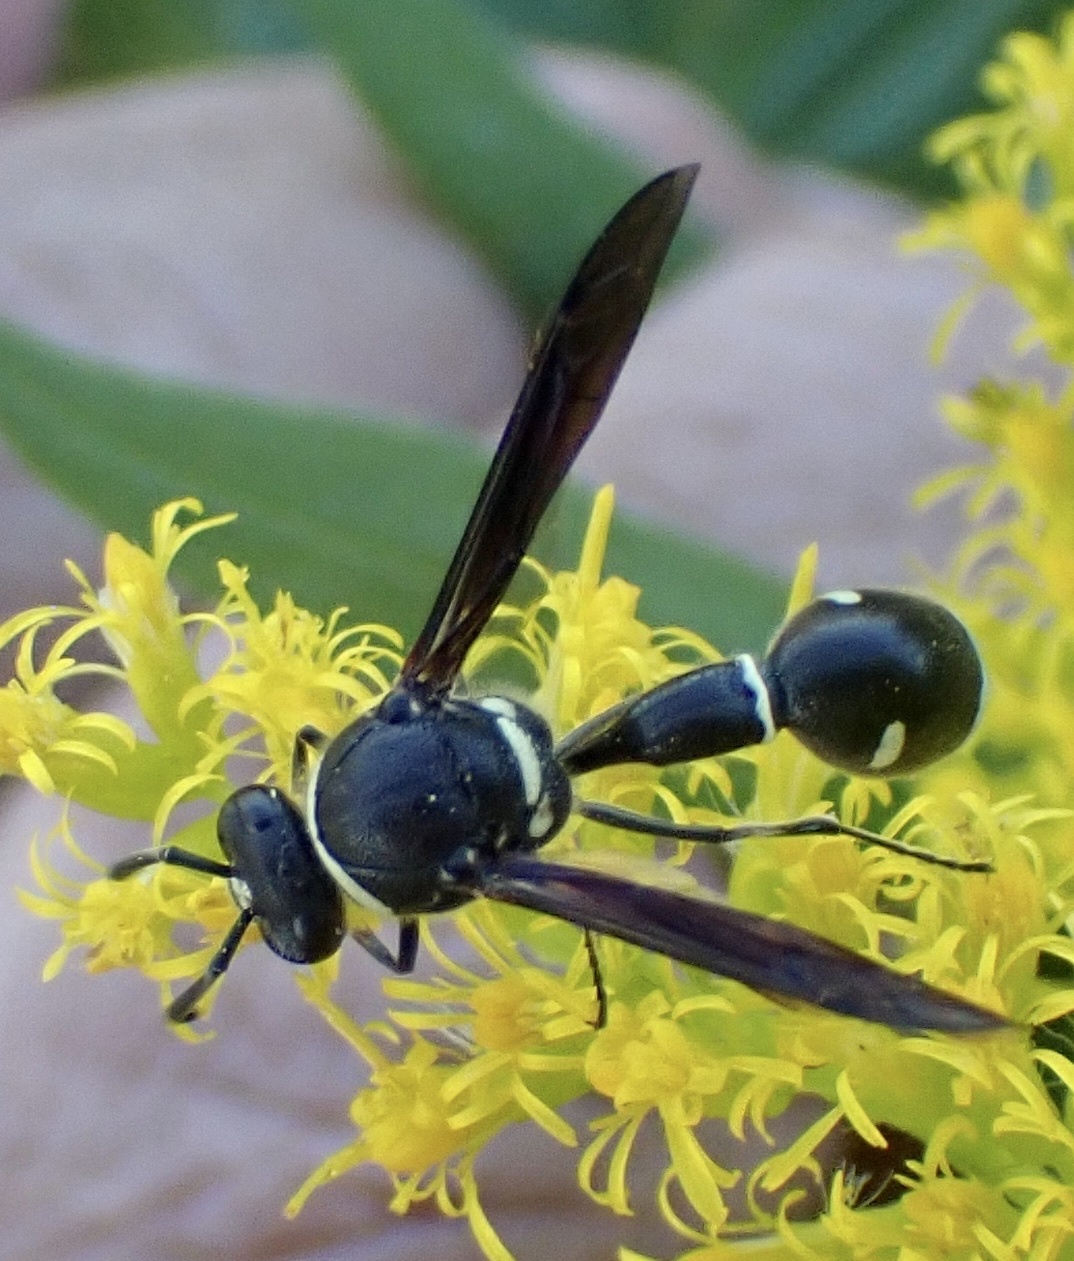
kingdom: Animalia
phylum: Arthropoda
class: Insecta
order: Hymenoptera
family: Vespidae
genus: Eumenes
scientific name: Eumenes fraternus
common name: Fraternal potter wasp
